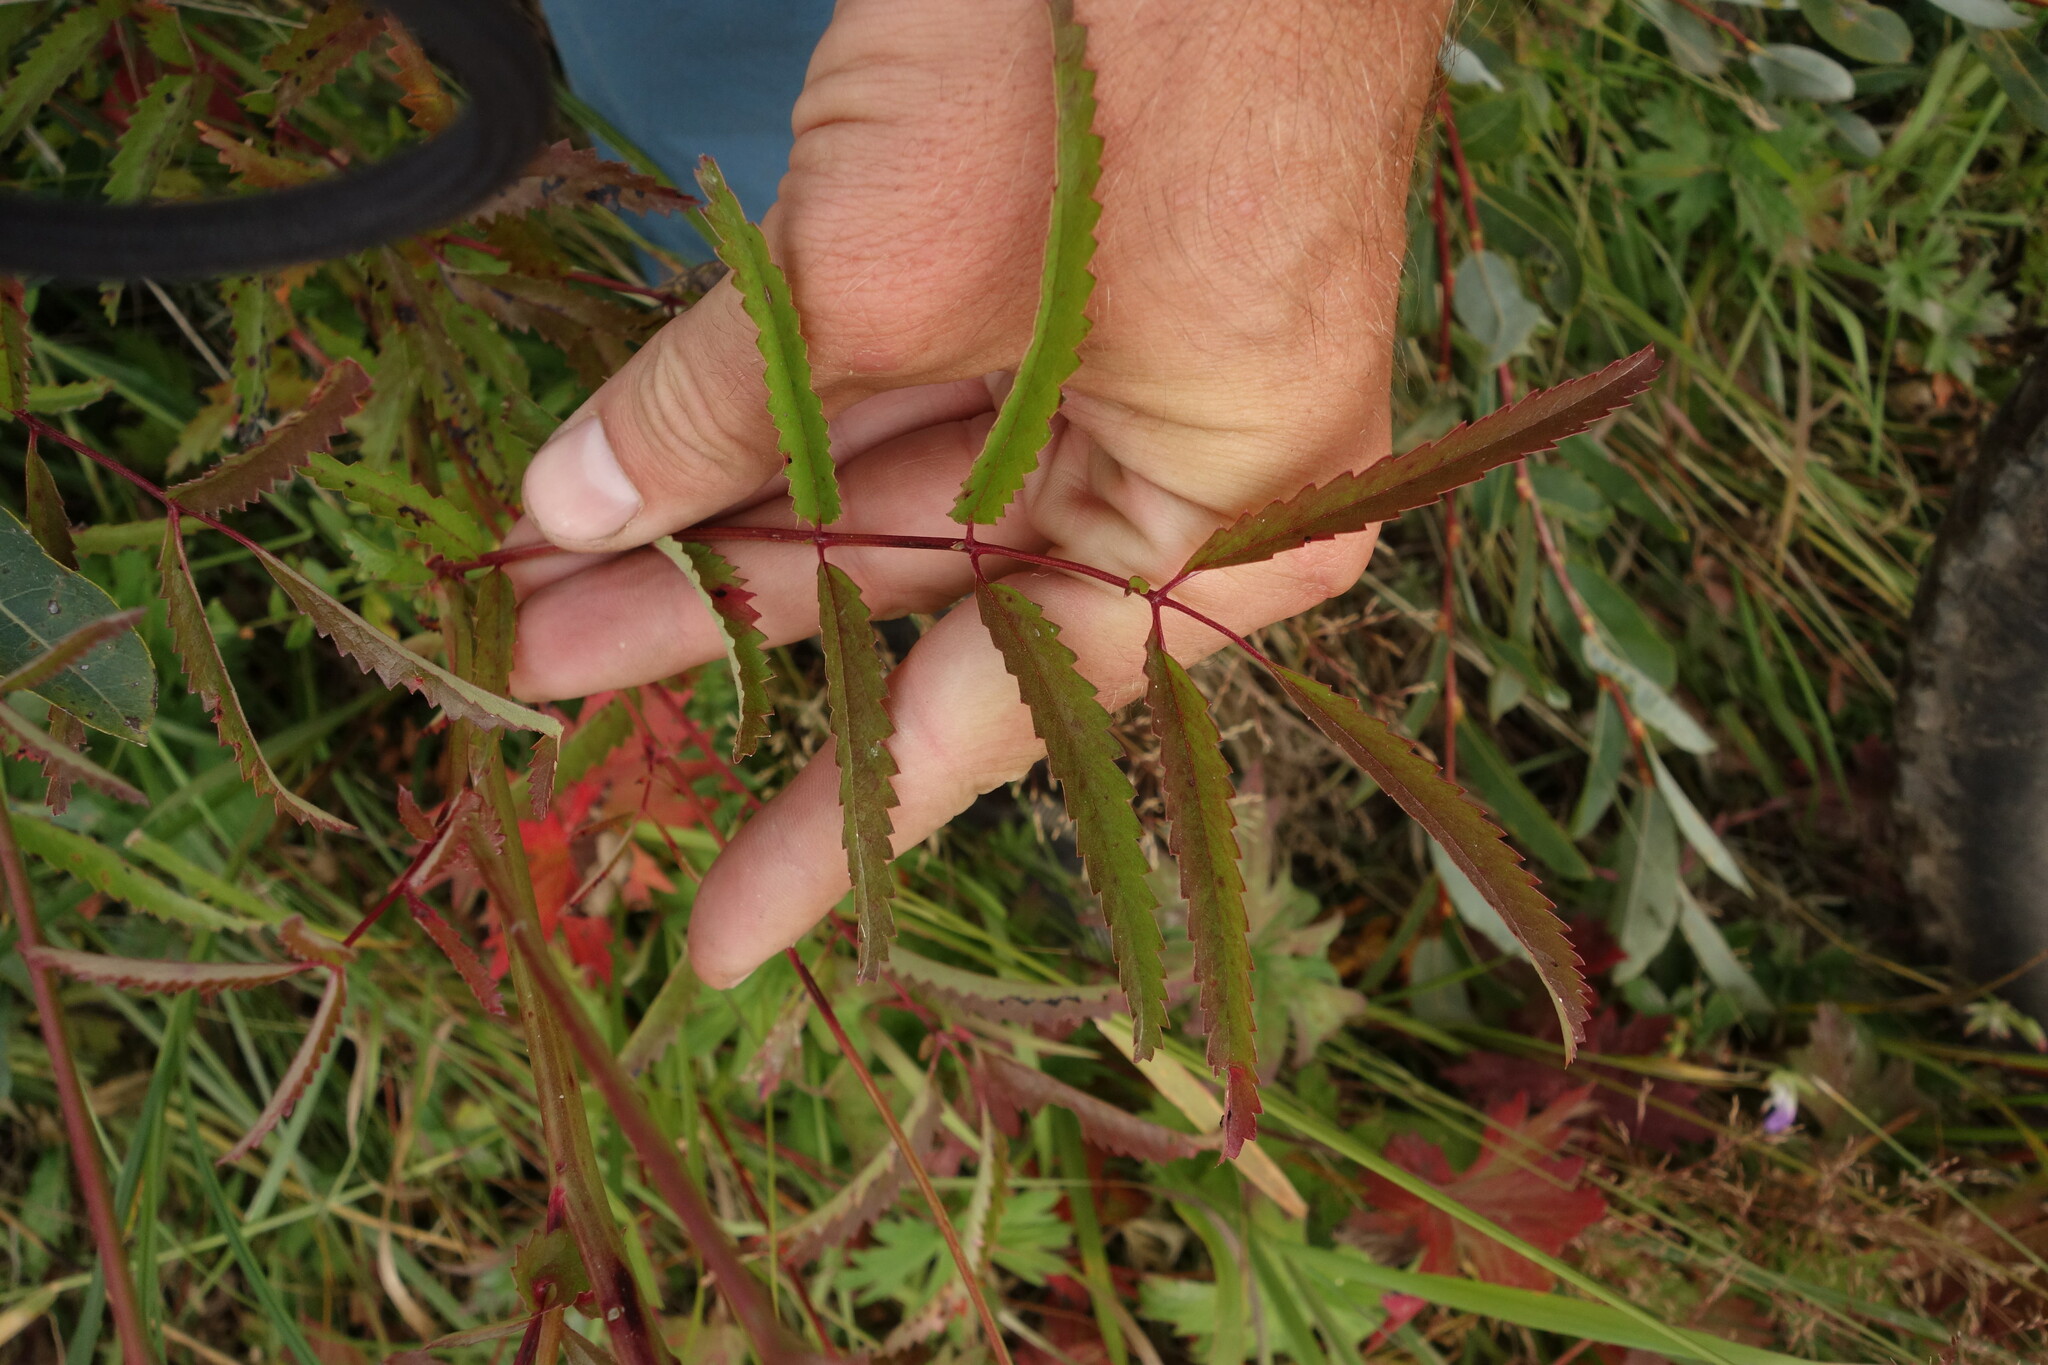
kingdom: Plantae
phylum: Tracheophyta
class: Magnoliopsida
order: Rosales
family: Rosaceae
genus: Poterium
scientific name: Poterium tenuifolium
